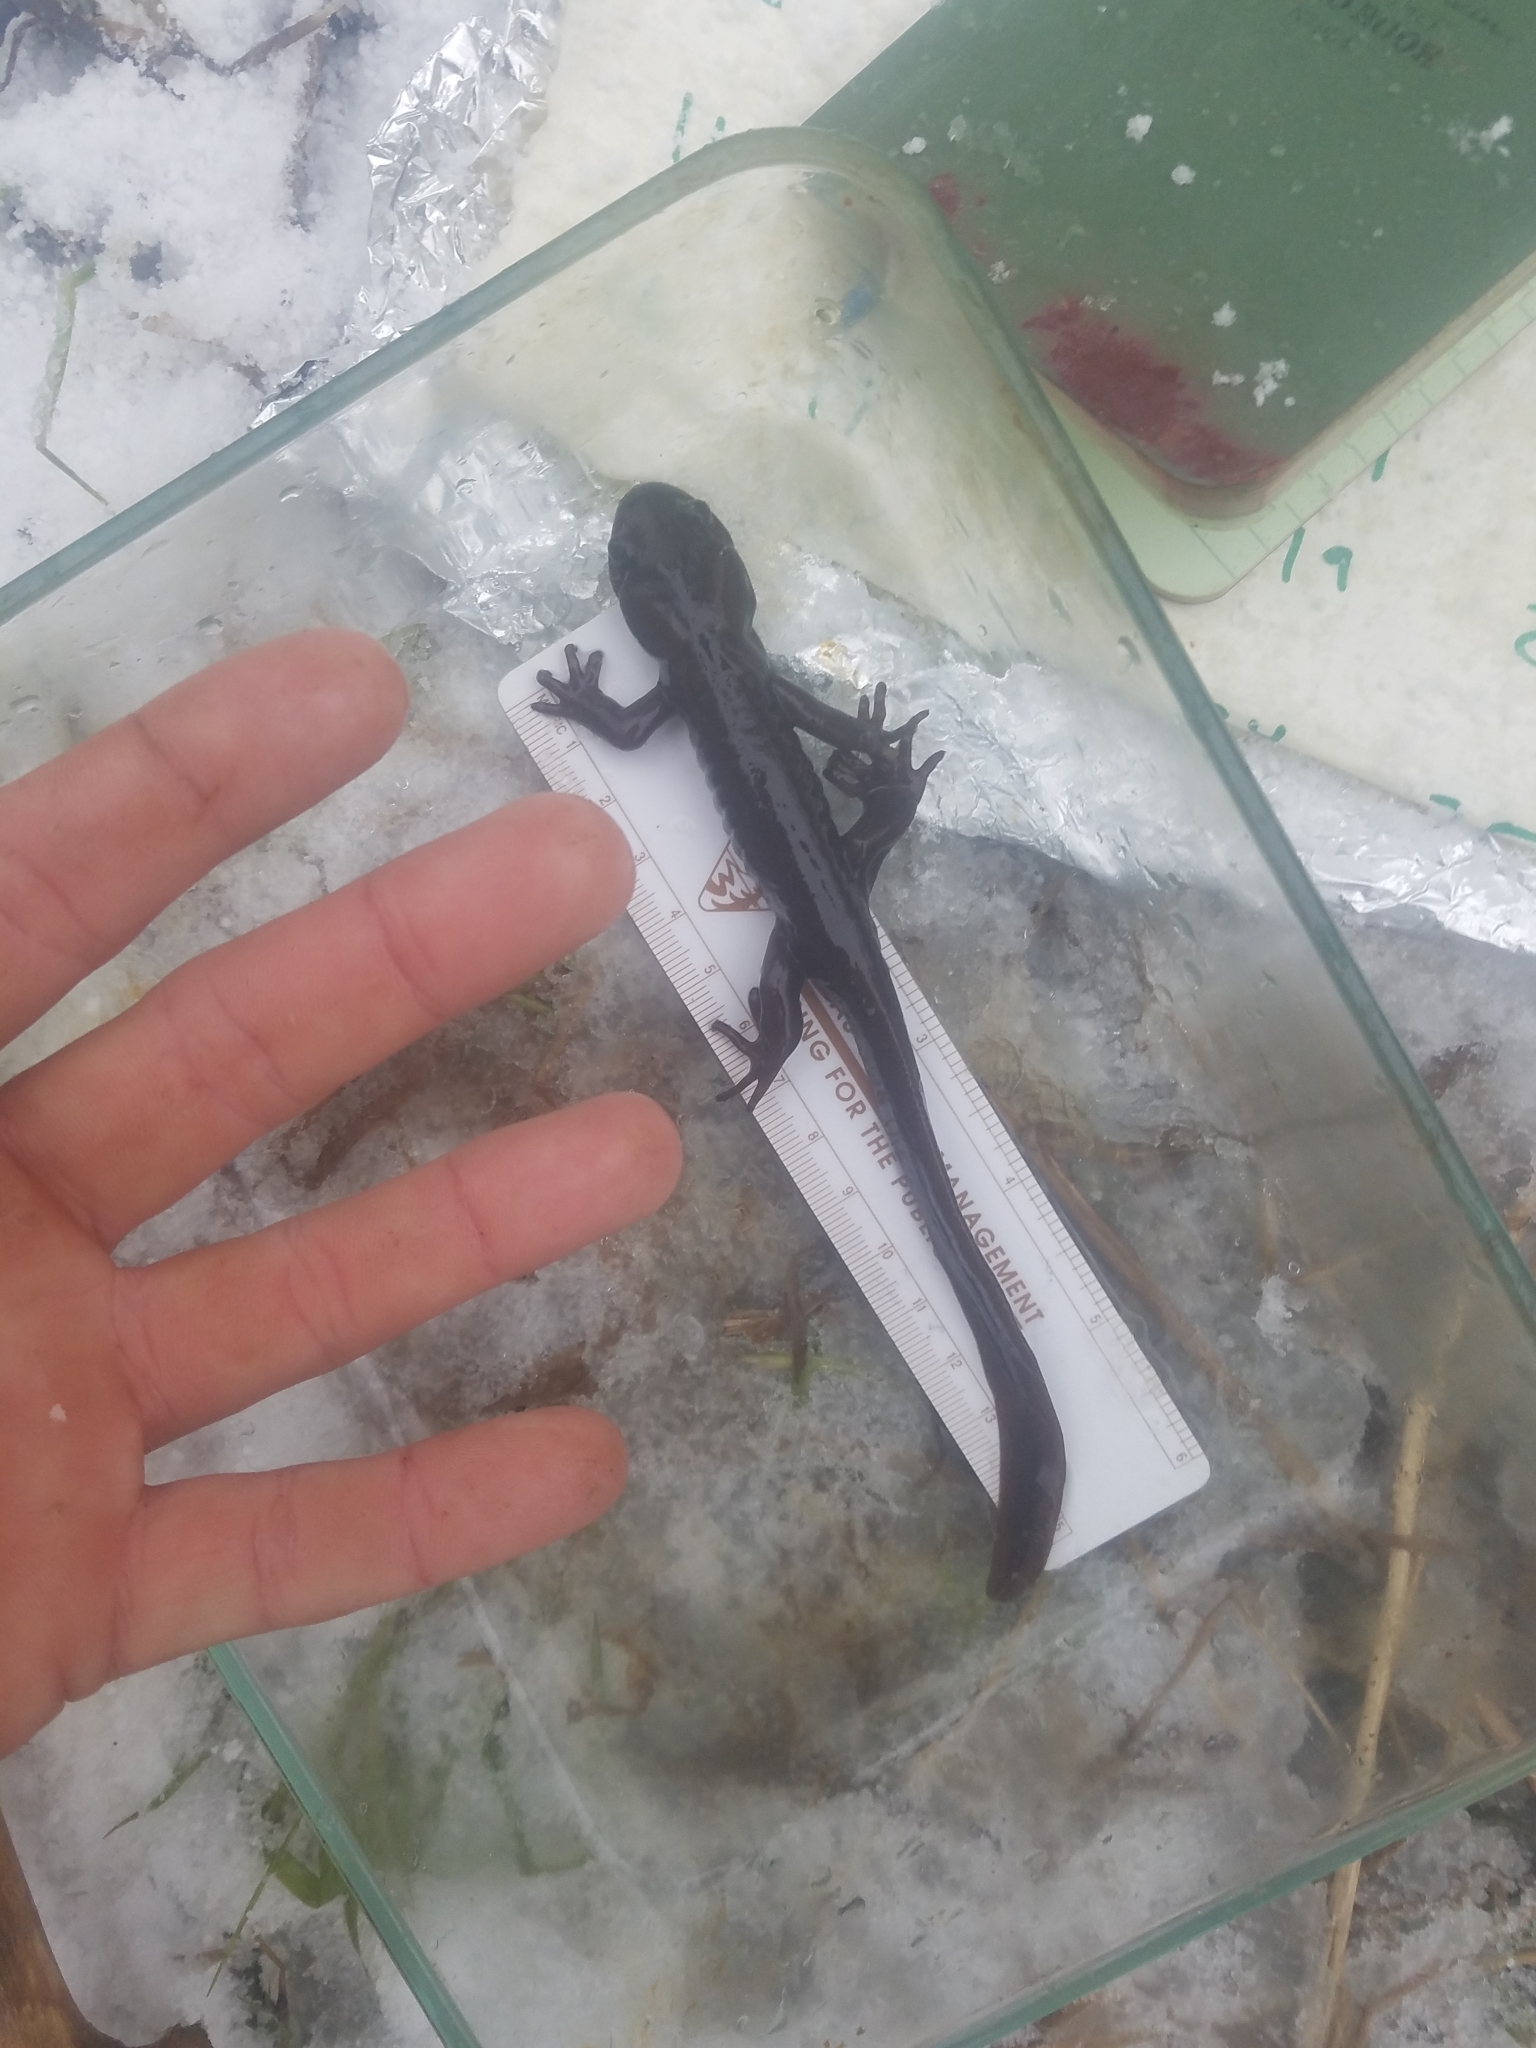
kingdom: Animalia
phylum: Chordata
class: Amphibia
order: Caudata
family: Ambystomatidae
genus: Ambystoma
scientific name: Ambystoma gracile
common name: Northwestern salamander
